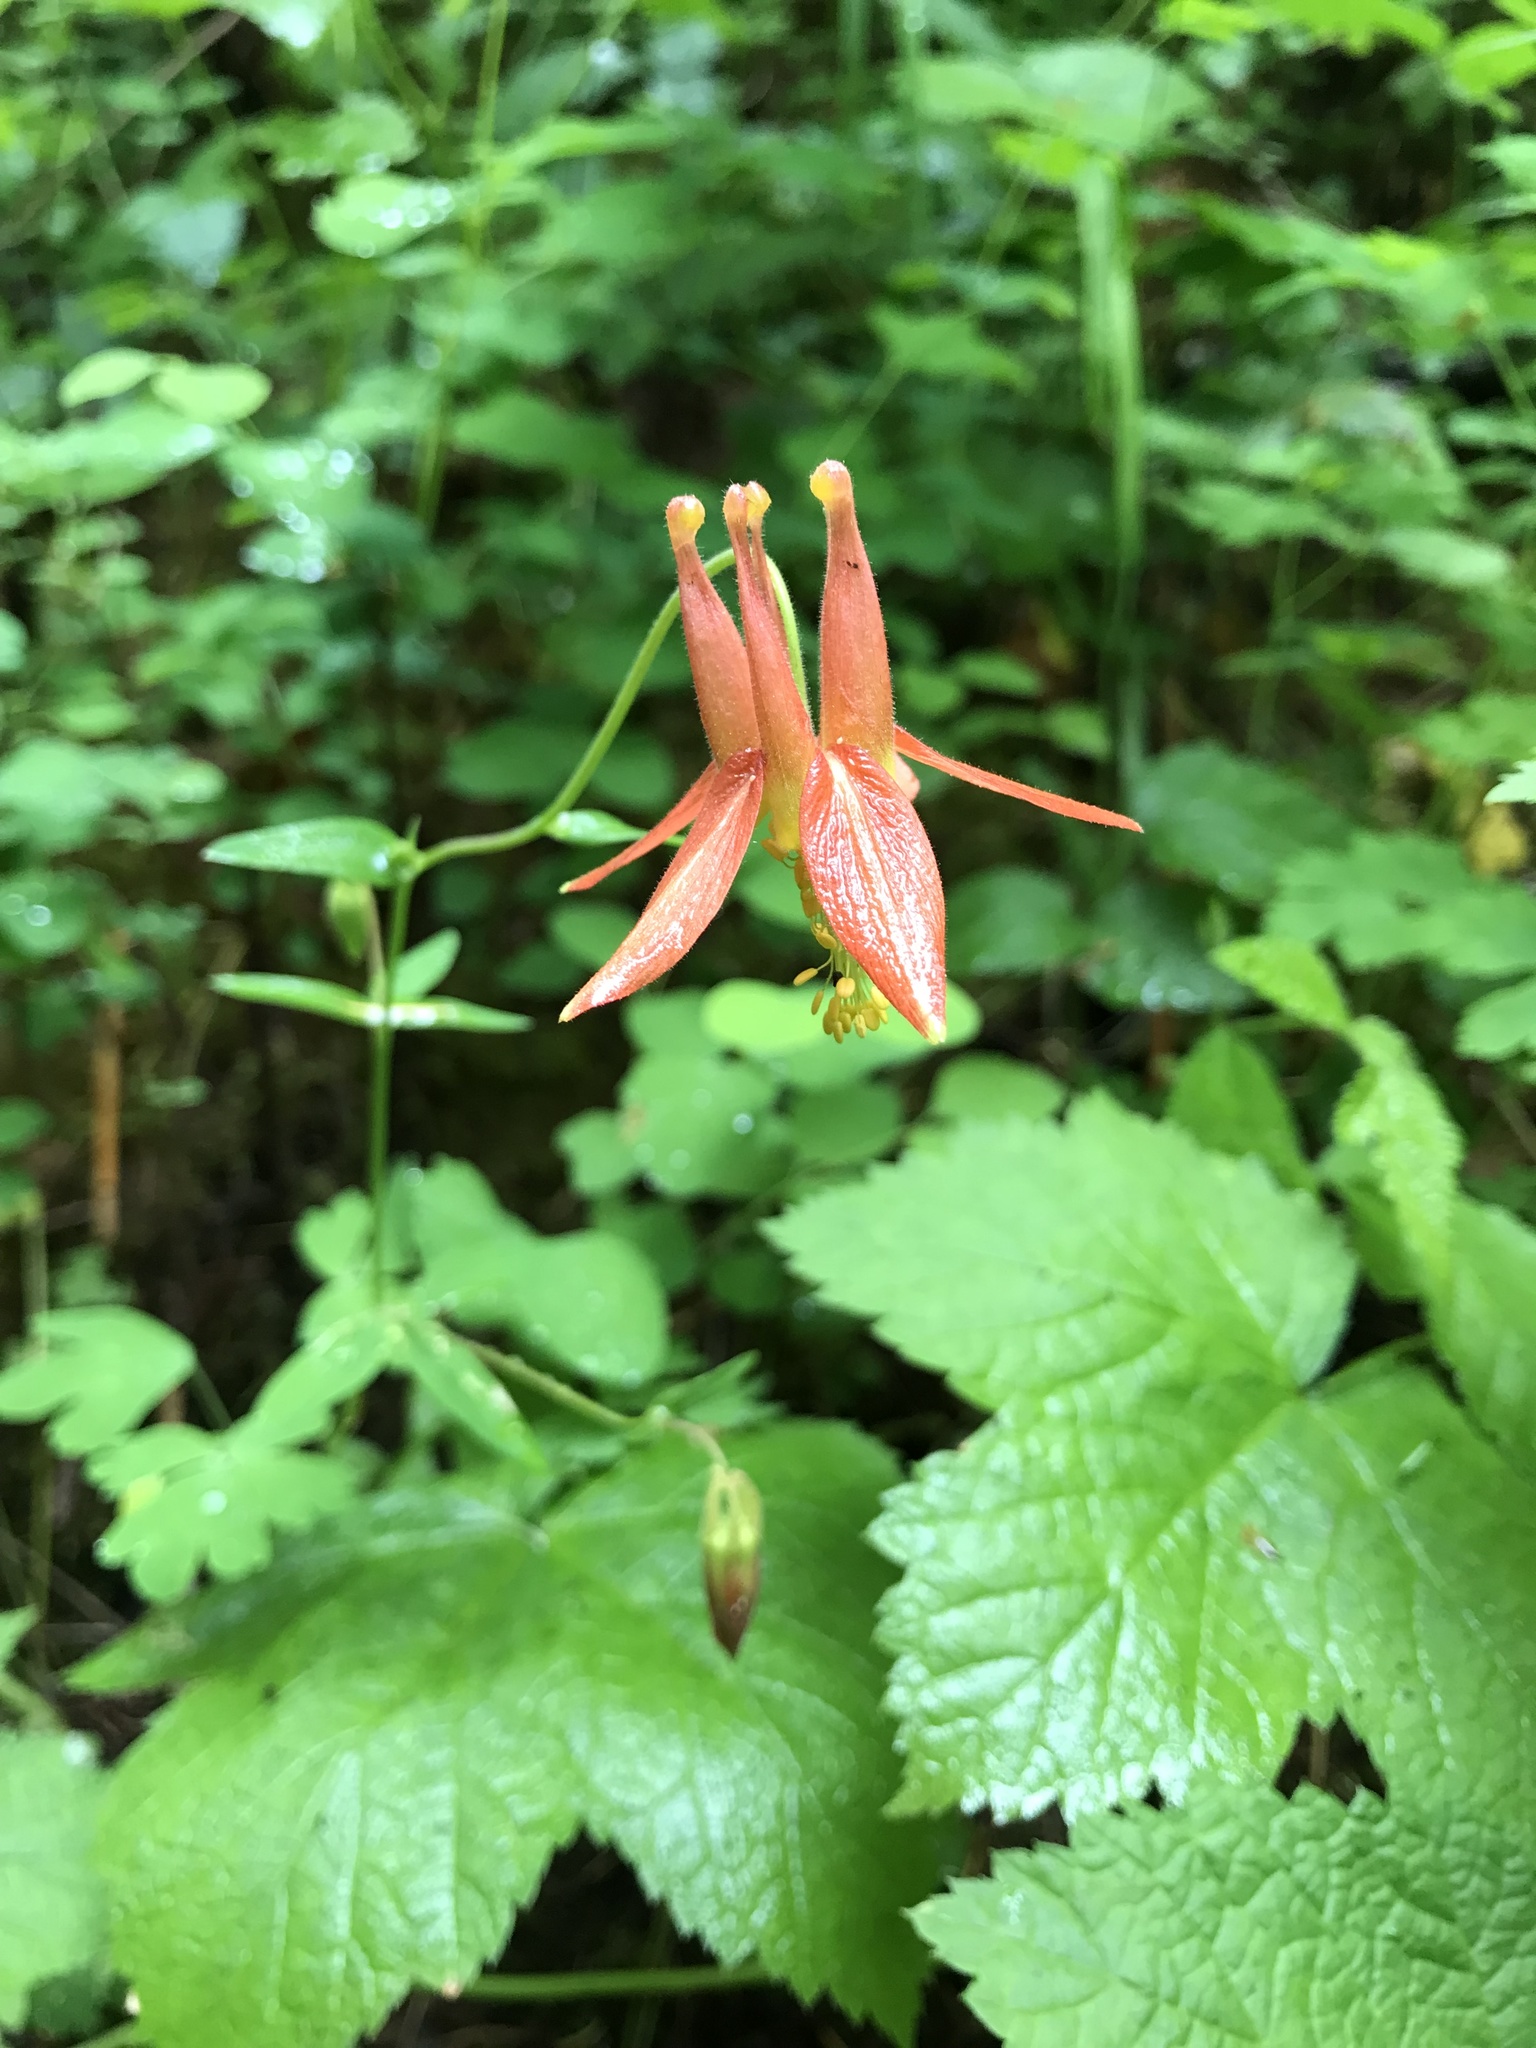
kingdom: Plantae
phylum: Tracheophyta
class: Magnoliopsida
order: Ranunculales
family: Ranunculaceae
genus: Aquilegia
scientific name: Aquilegia formosa
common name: Sitka columbine
